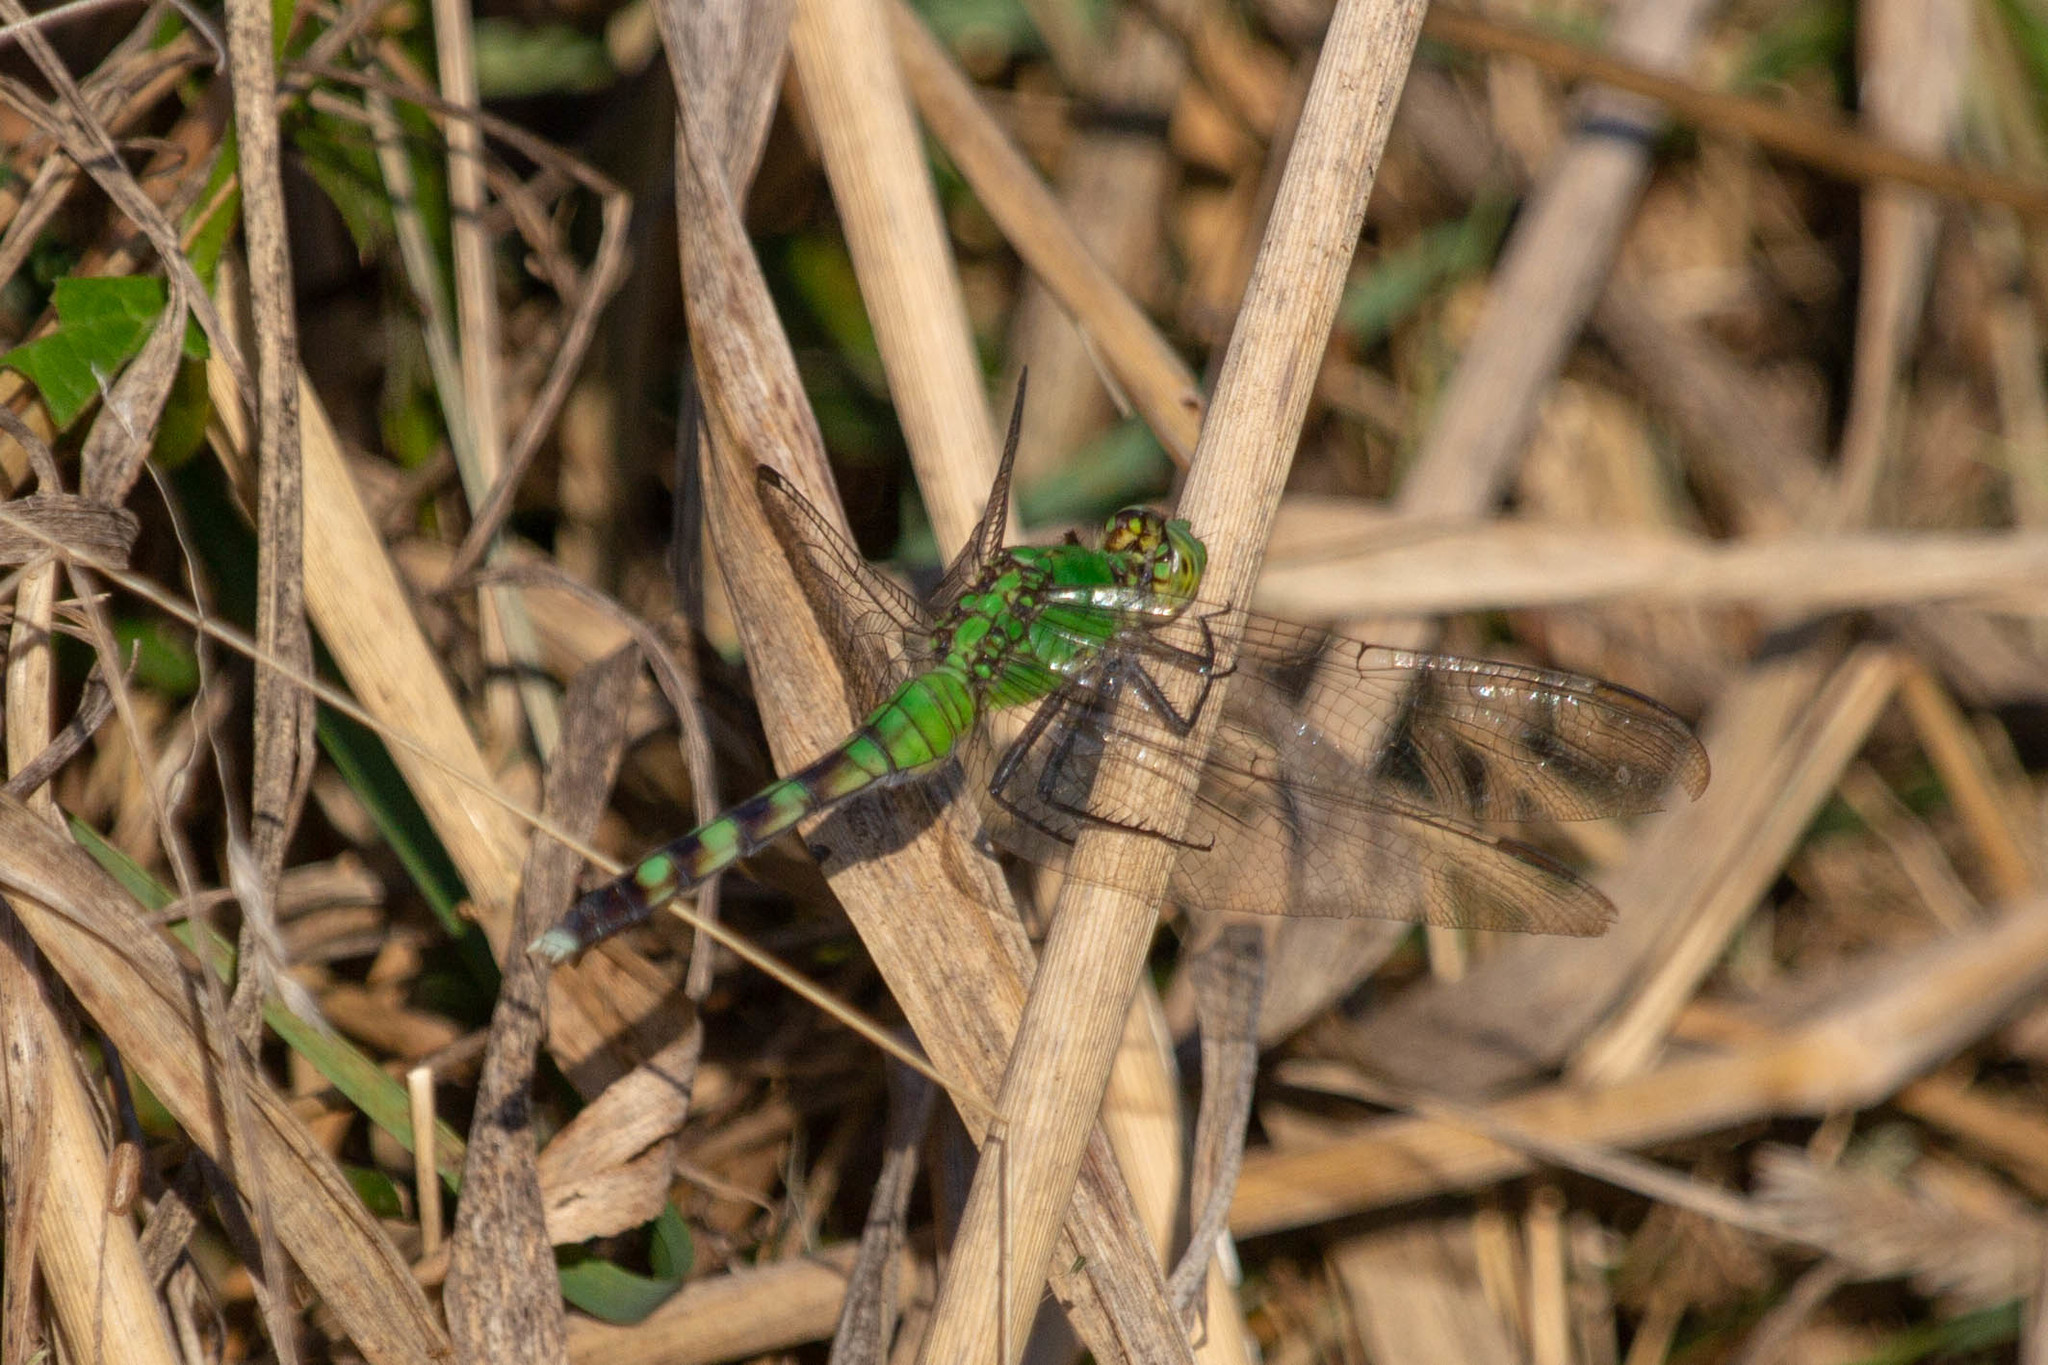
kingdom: Animalia
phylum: Arthropoda
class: Insecta
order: Odonata
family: Libellulidae
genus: Erythemis
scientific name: Erythemis simplicicollis
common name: Eastern pondhawk
